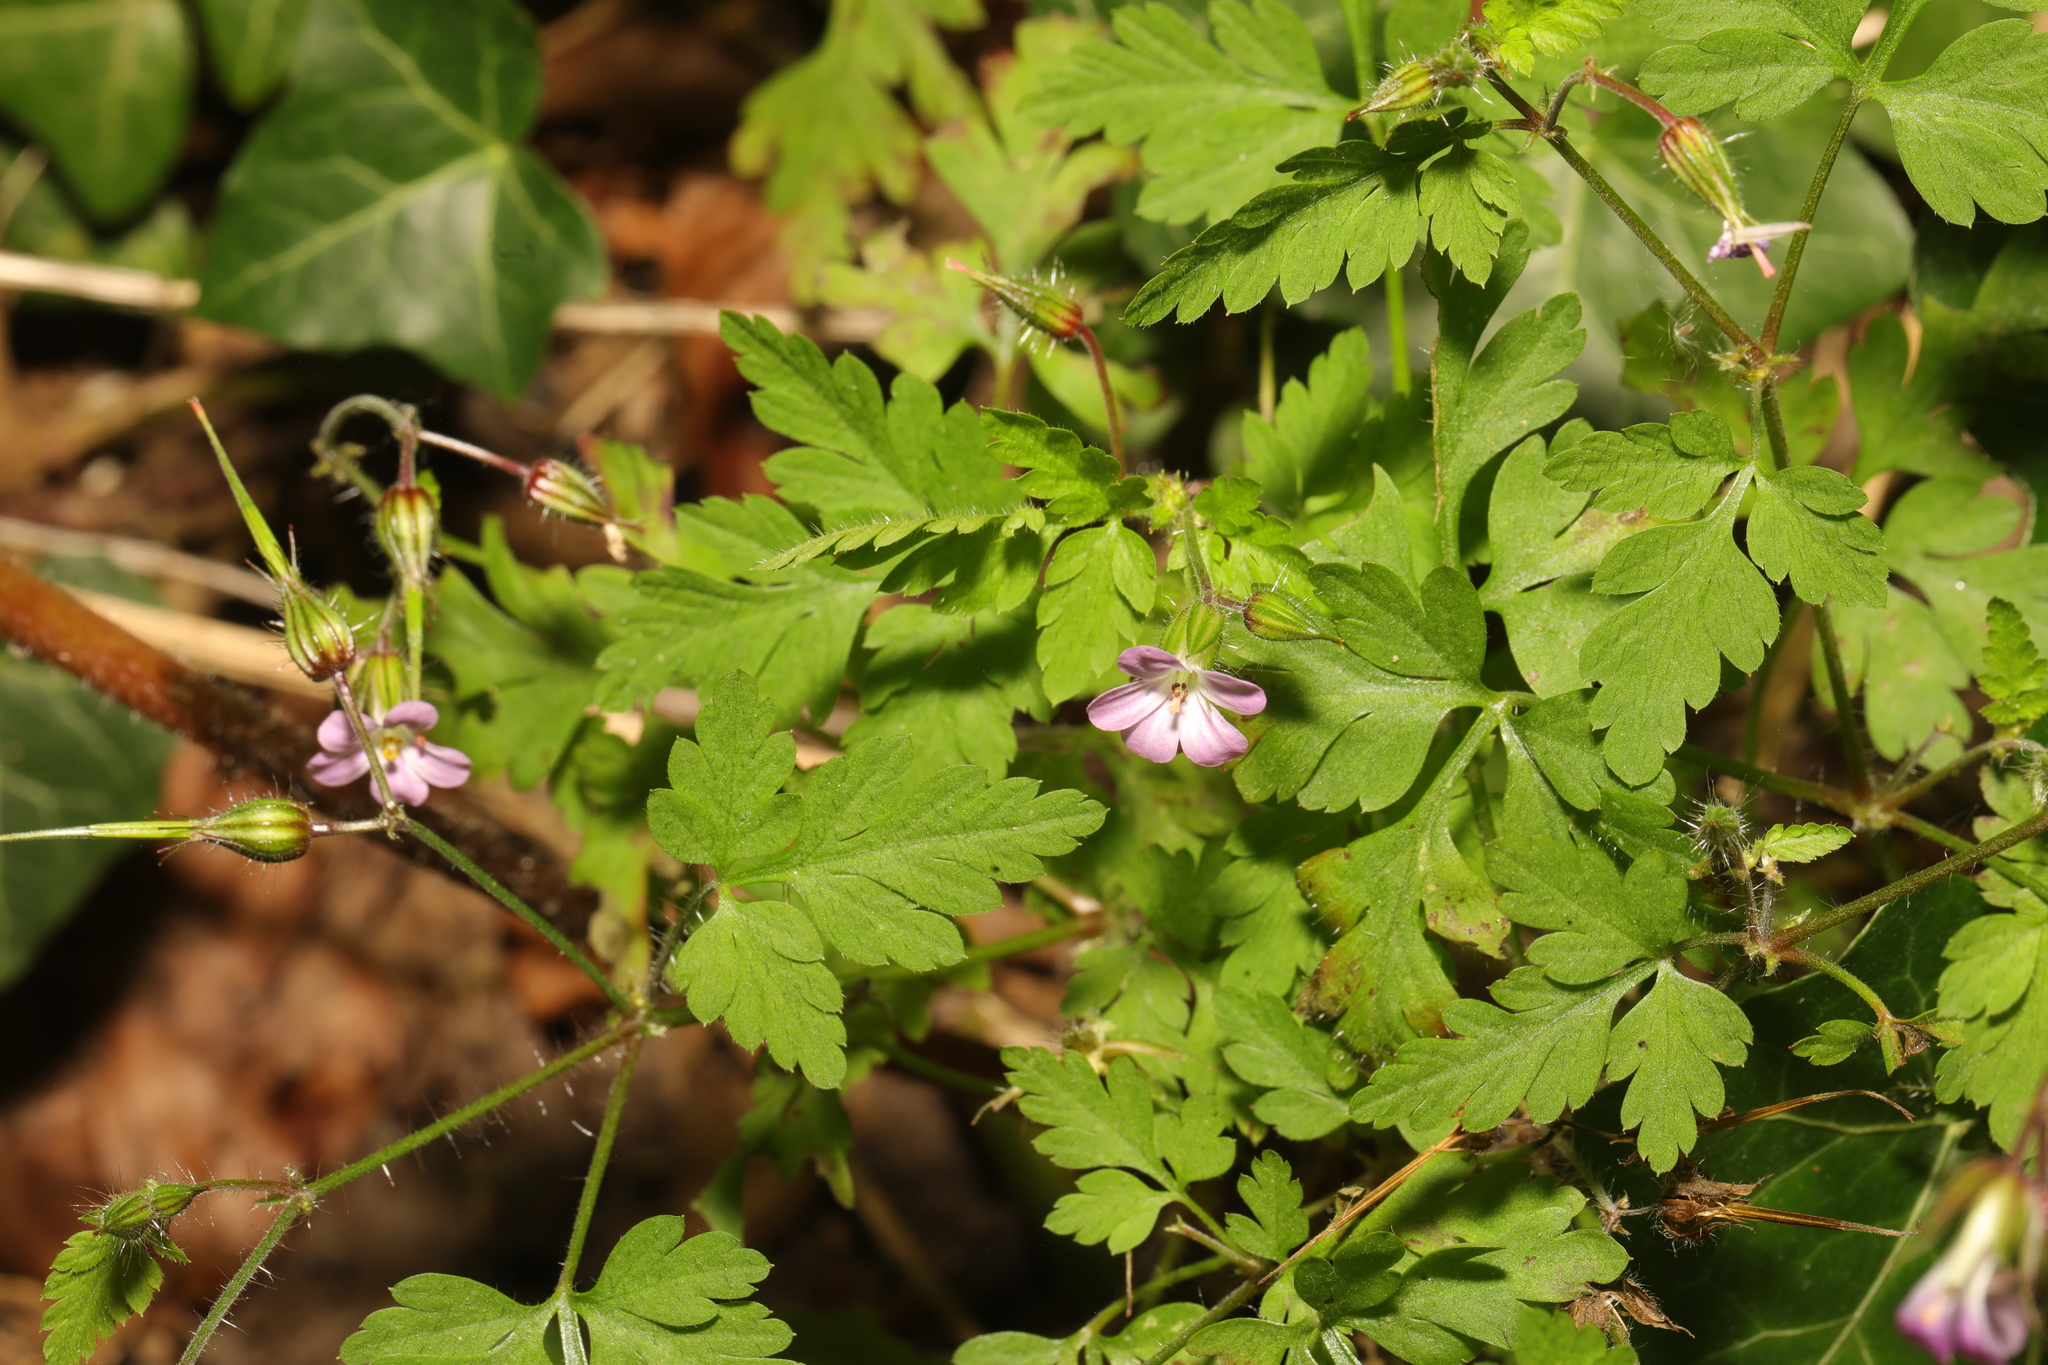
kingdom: Plantae
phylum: Tracheophyta
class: Magnoliopsida
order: Geraniales
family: Geraniaceae
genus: Geranium
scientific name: Geranium robertianum
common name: Herb-robert
